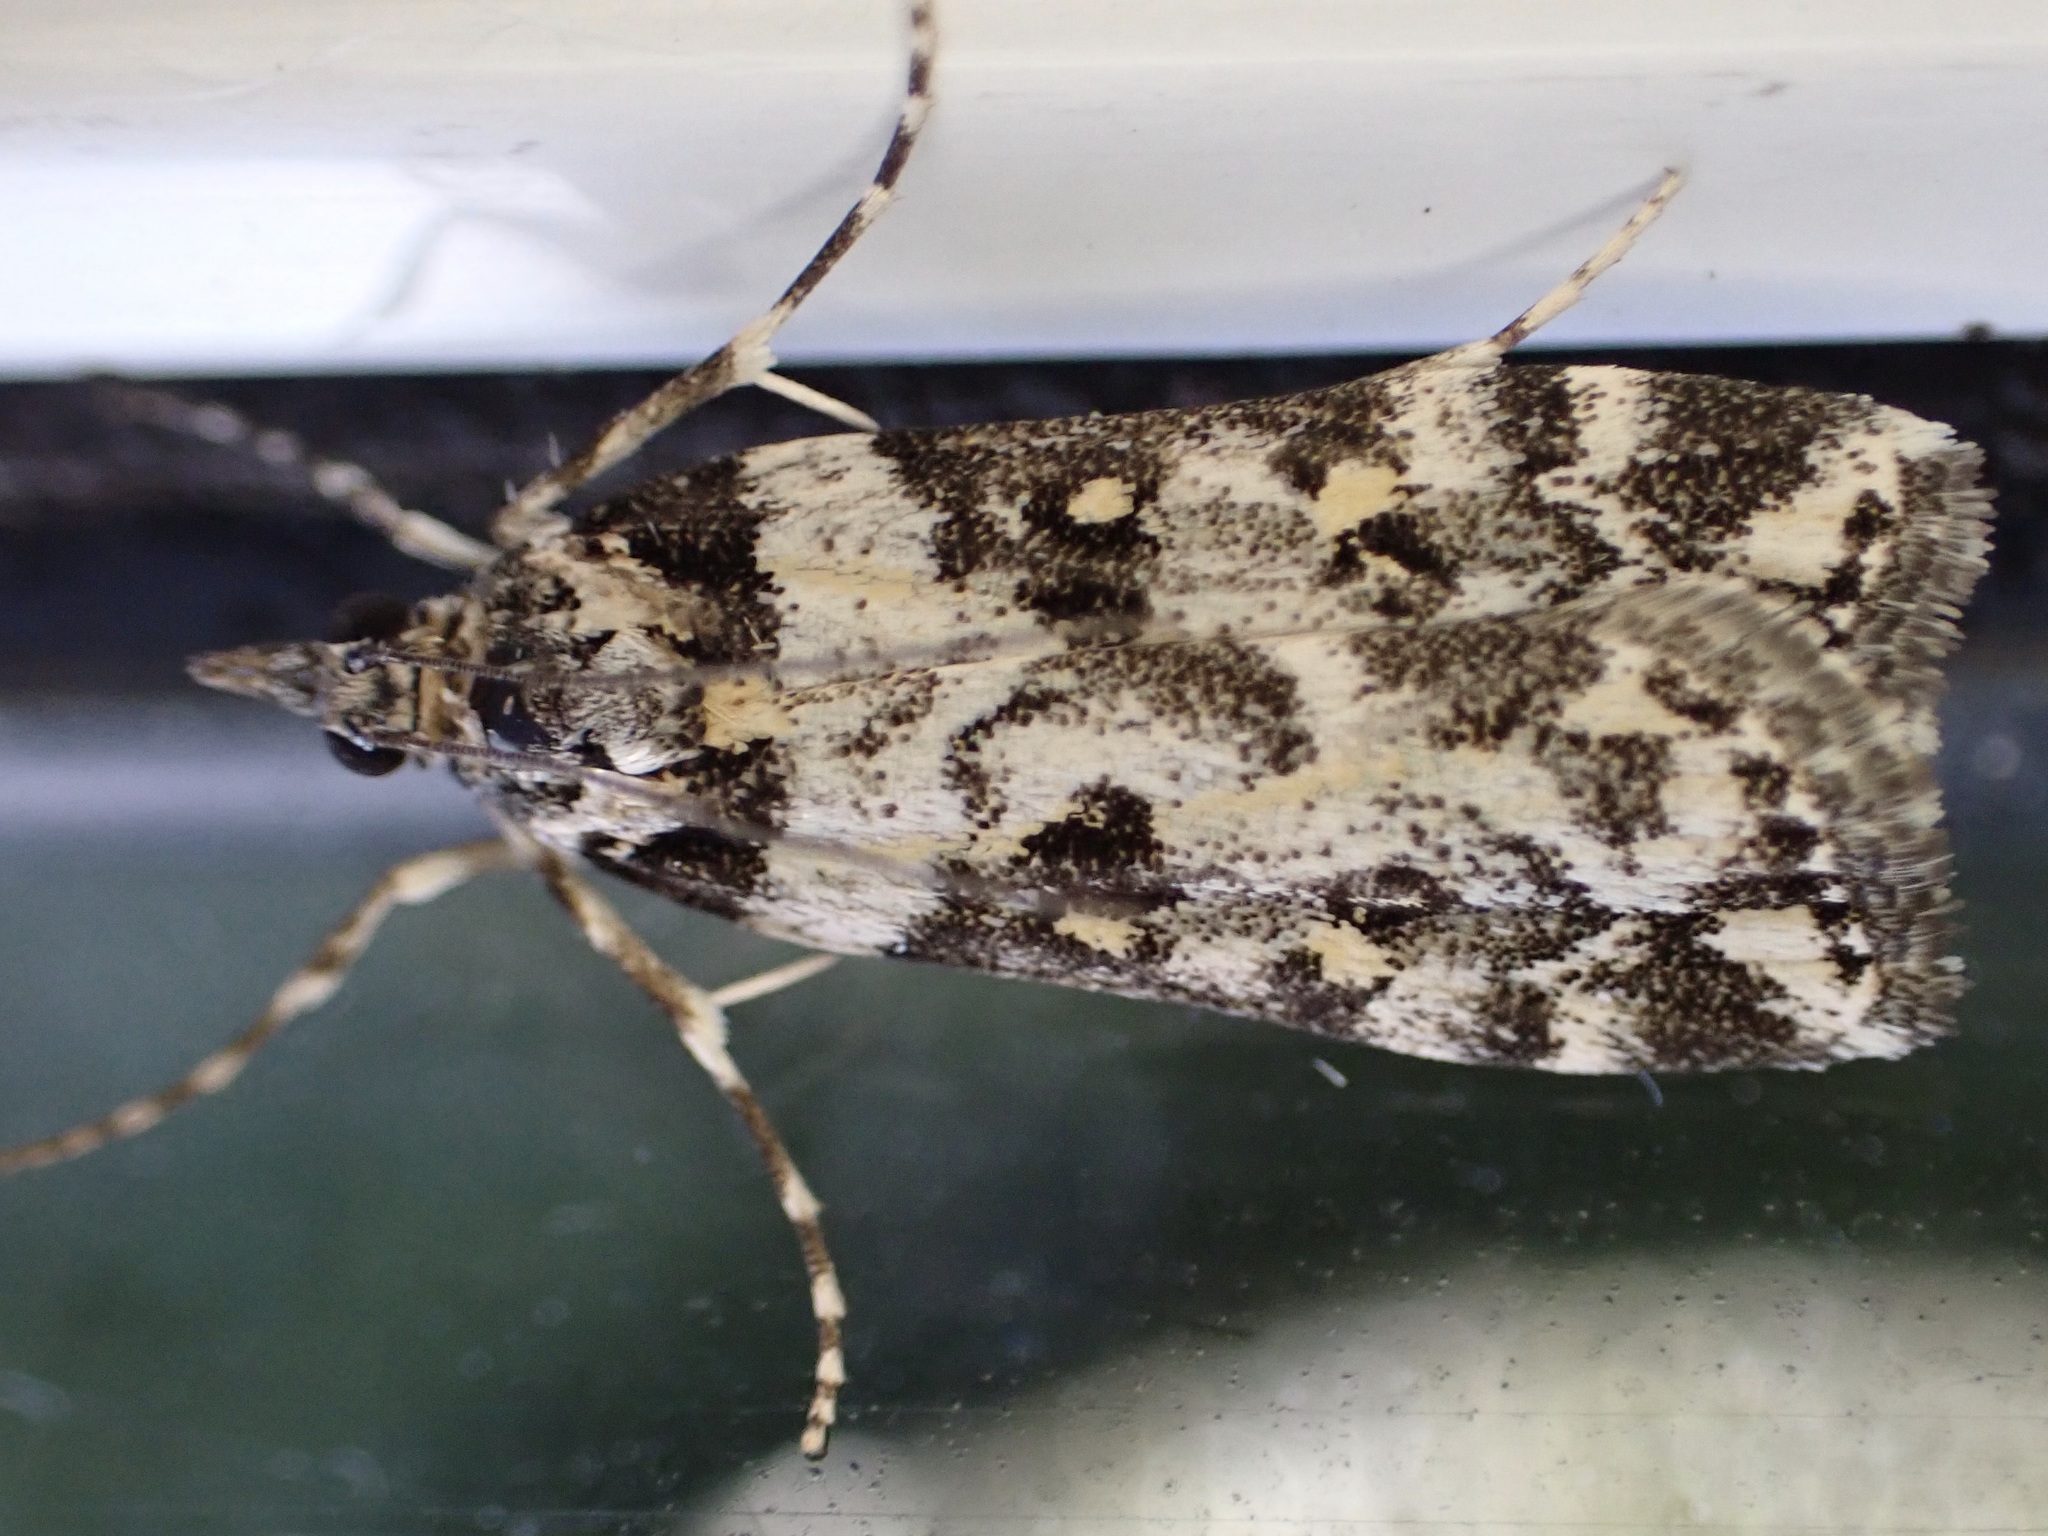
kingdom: Animalia
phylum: Arthropoda
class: Insecta
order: Lepidoptera
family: Crambidae
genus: Eudonia
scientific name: Eudonia diphtheralis
